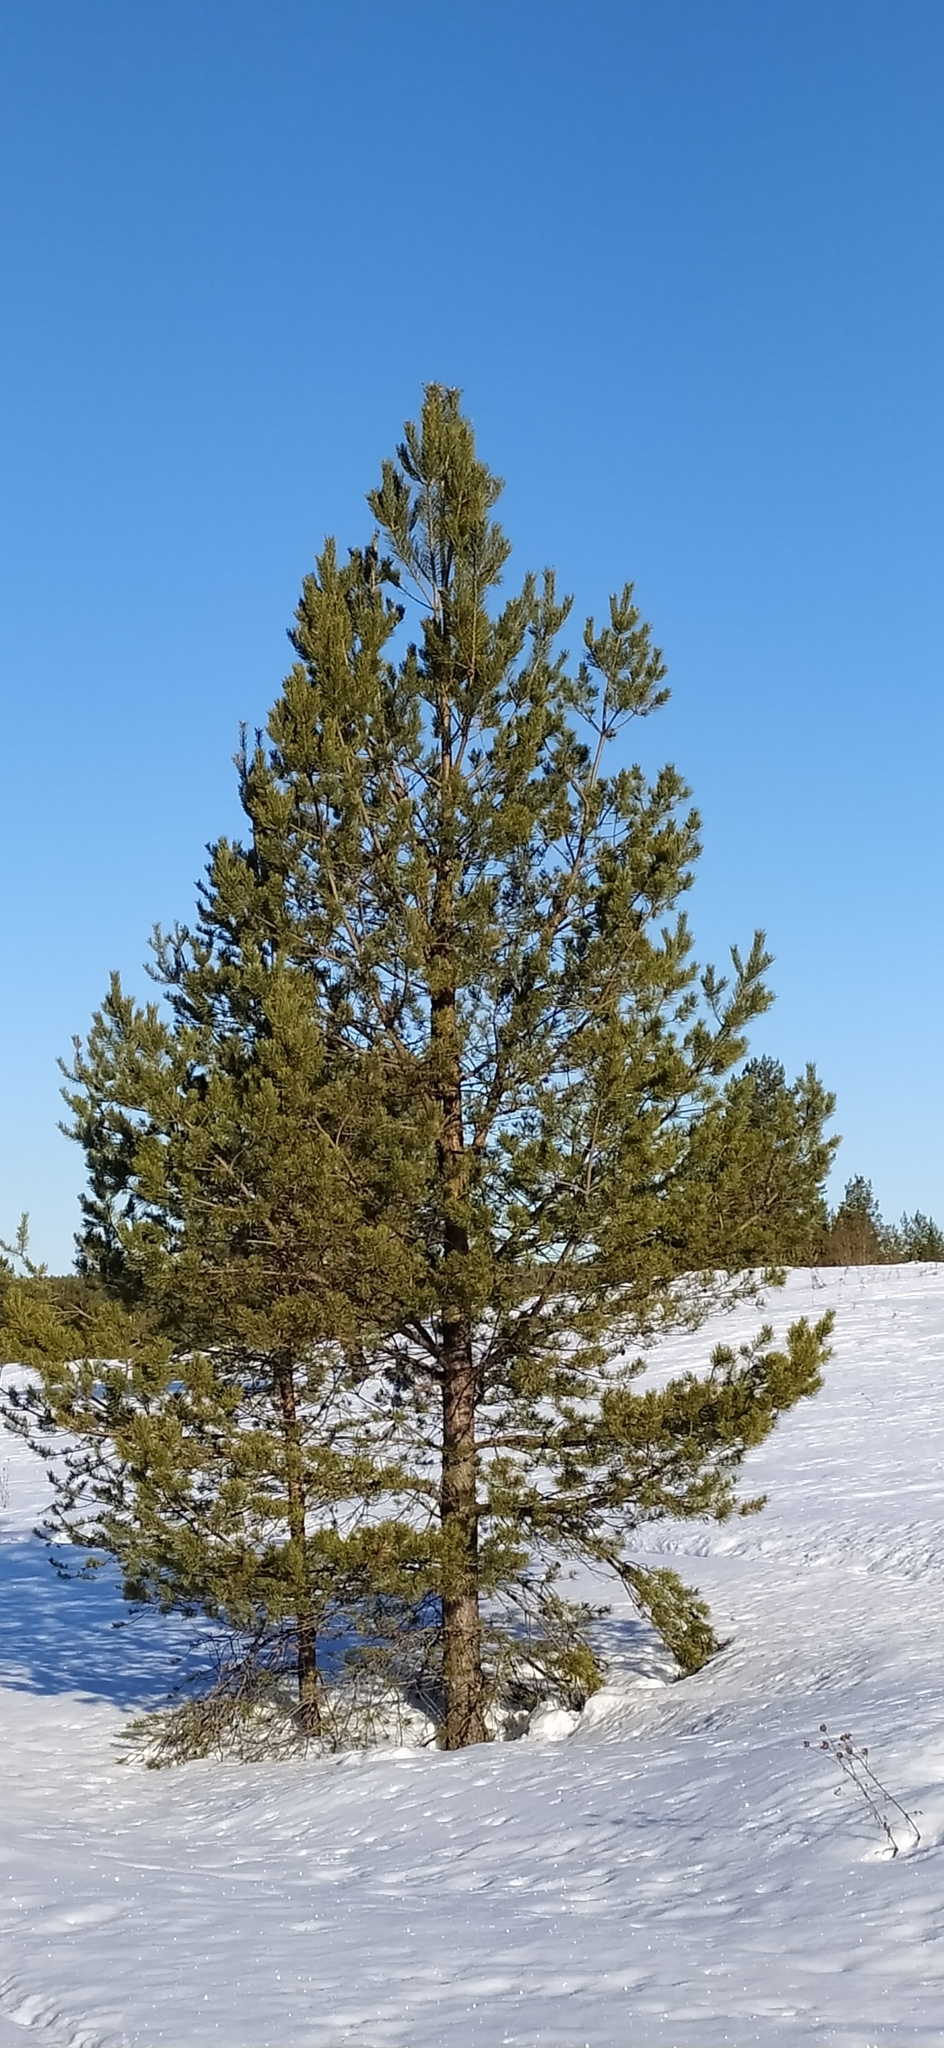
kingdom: Plantae
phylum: Tracheophyta
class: Pinopsida
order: Pinales
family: Pinaceae
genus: Pinus
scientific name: Pinus sylvestris
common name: Scots pine
